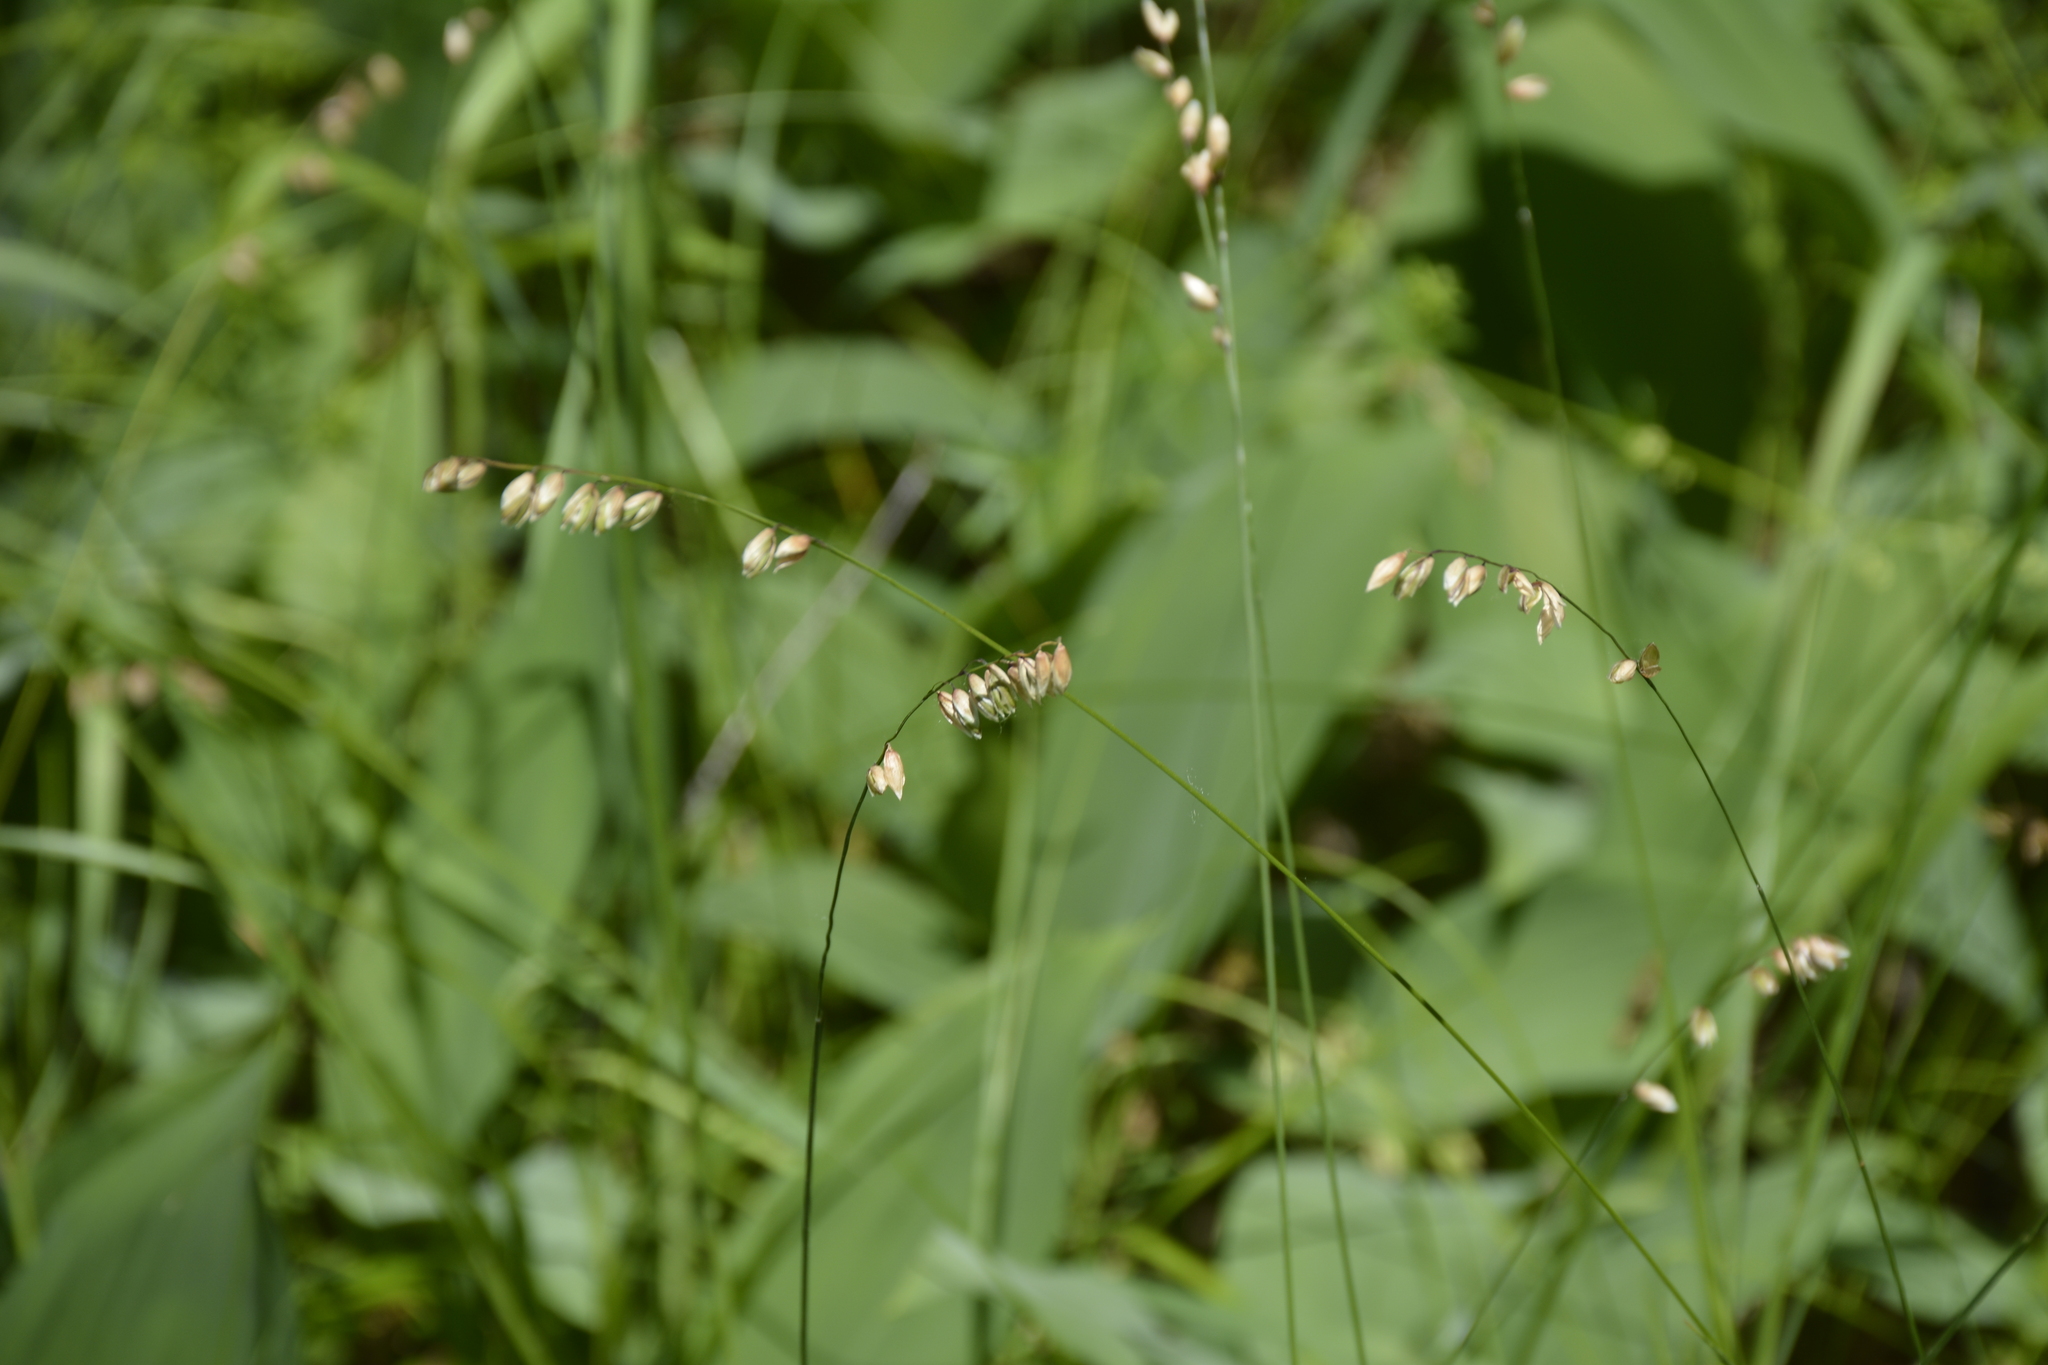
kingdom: Plantae
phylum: Tracheophyta
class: Liliopsida
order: Poales
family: Poaceae
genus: Melica
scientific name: Melica nutans
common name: Mountain melick
